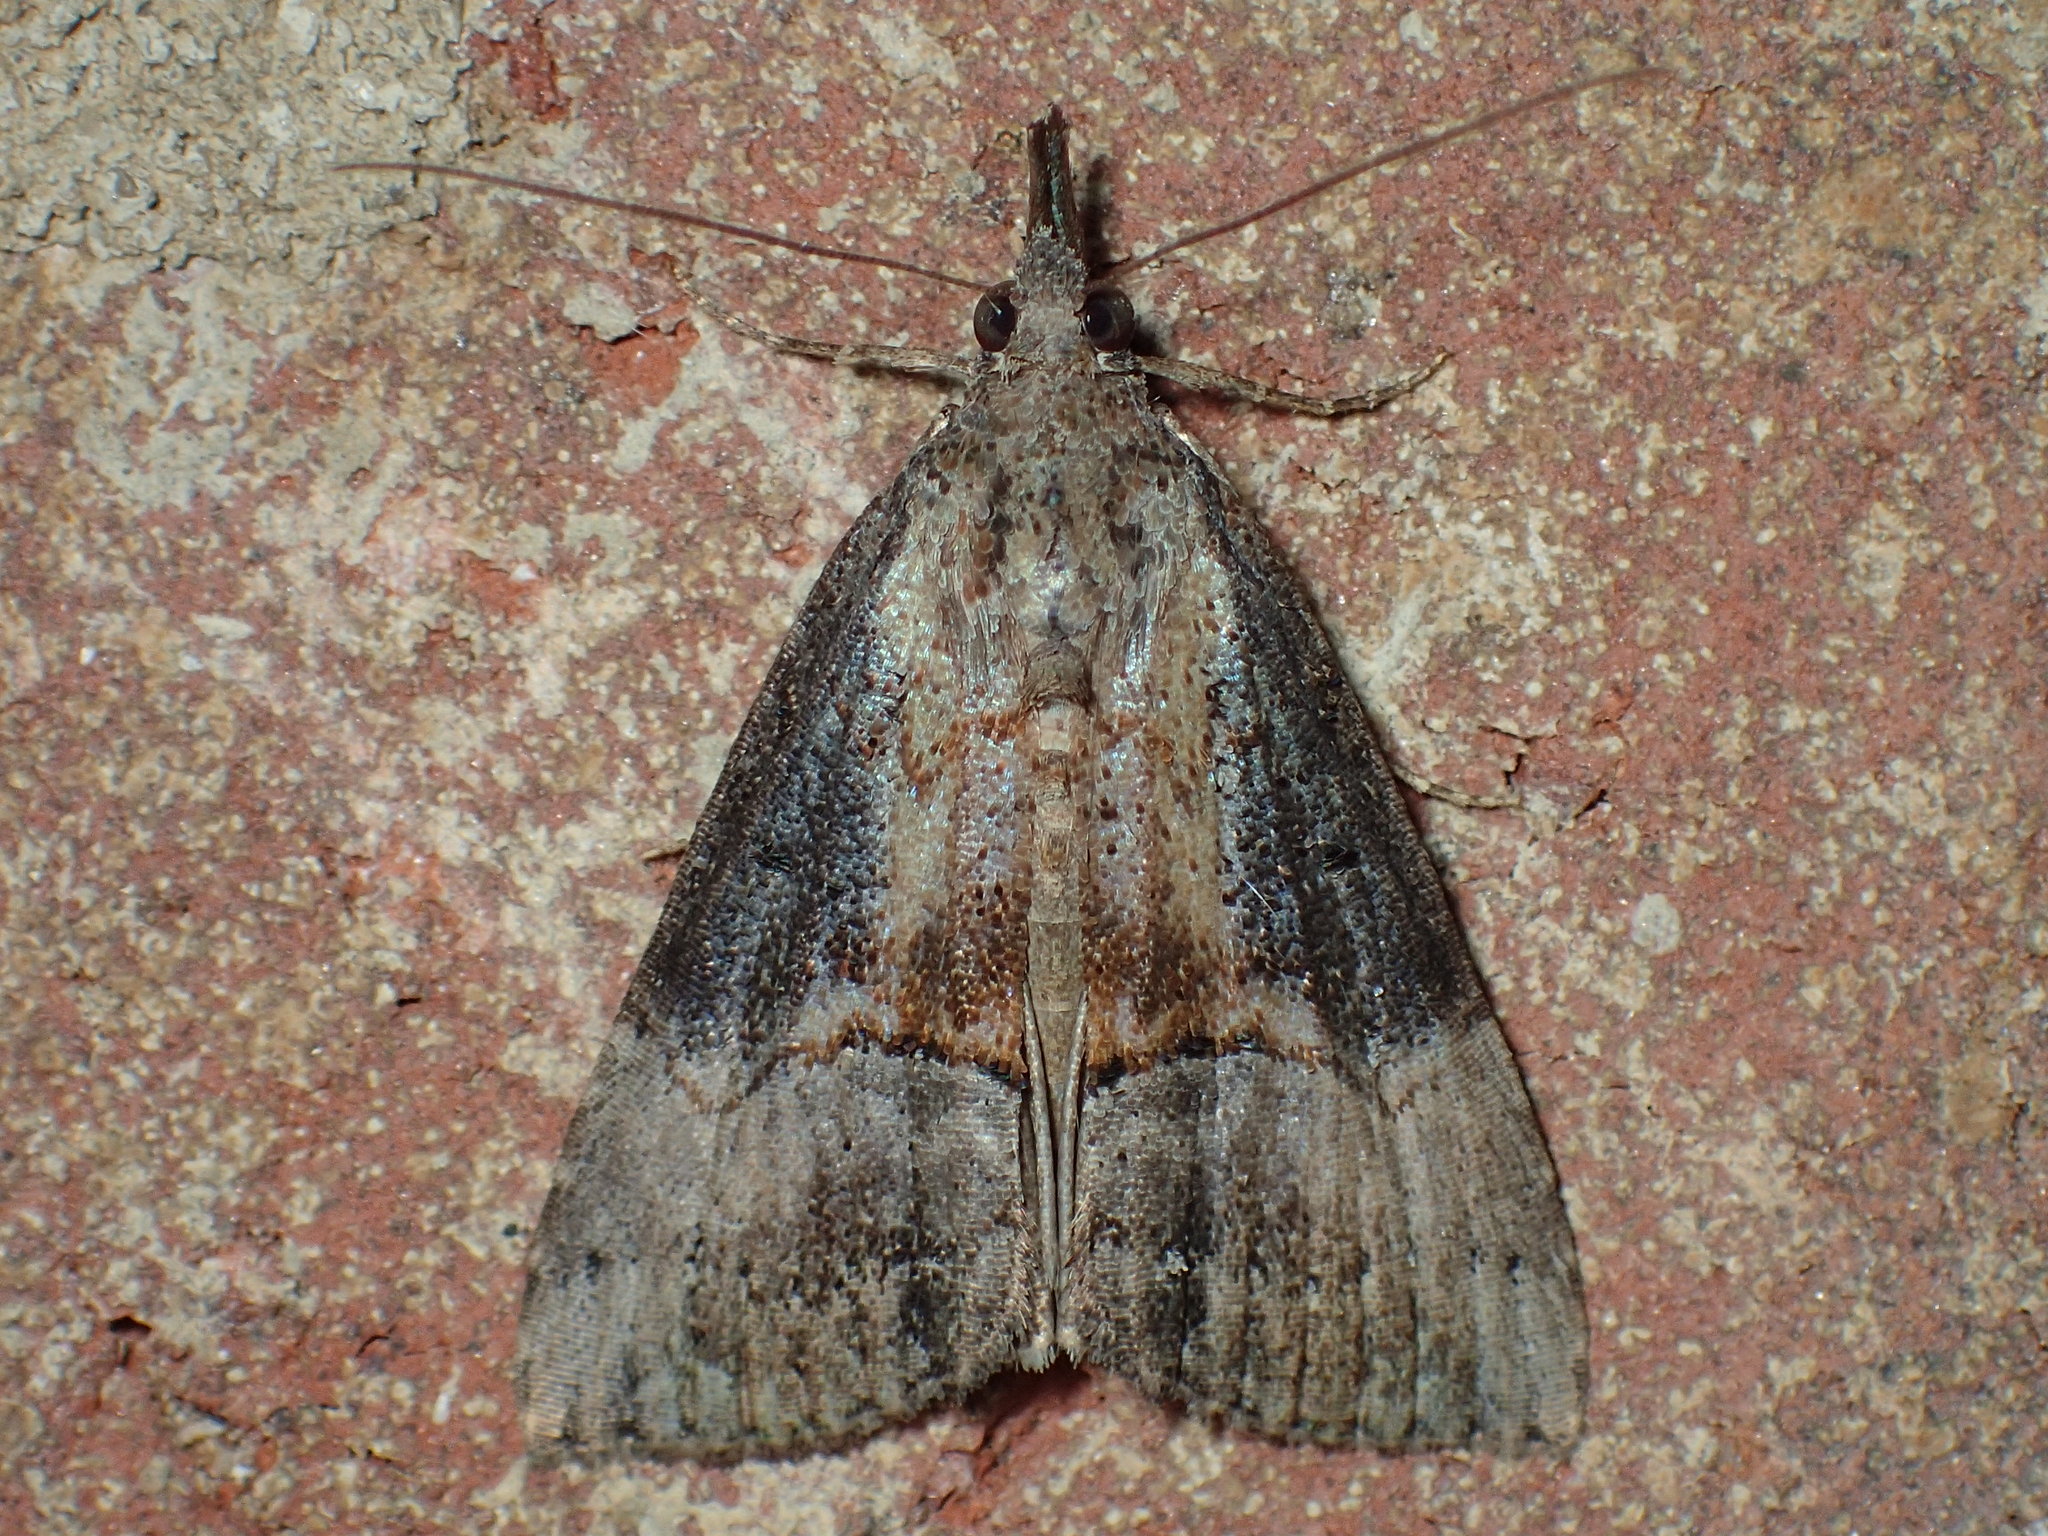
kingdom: Animalia
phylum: Arthropoda
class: Insecta
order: Lepidoptera
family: Erebidae
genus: Hypena
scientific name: Hypena scabra
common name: Green cloverworm
